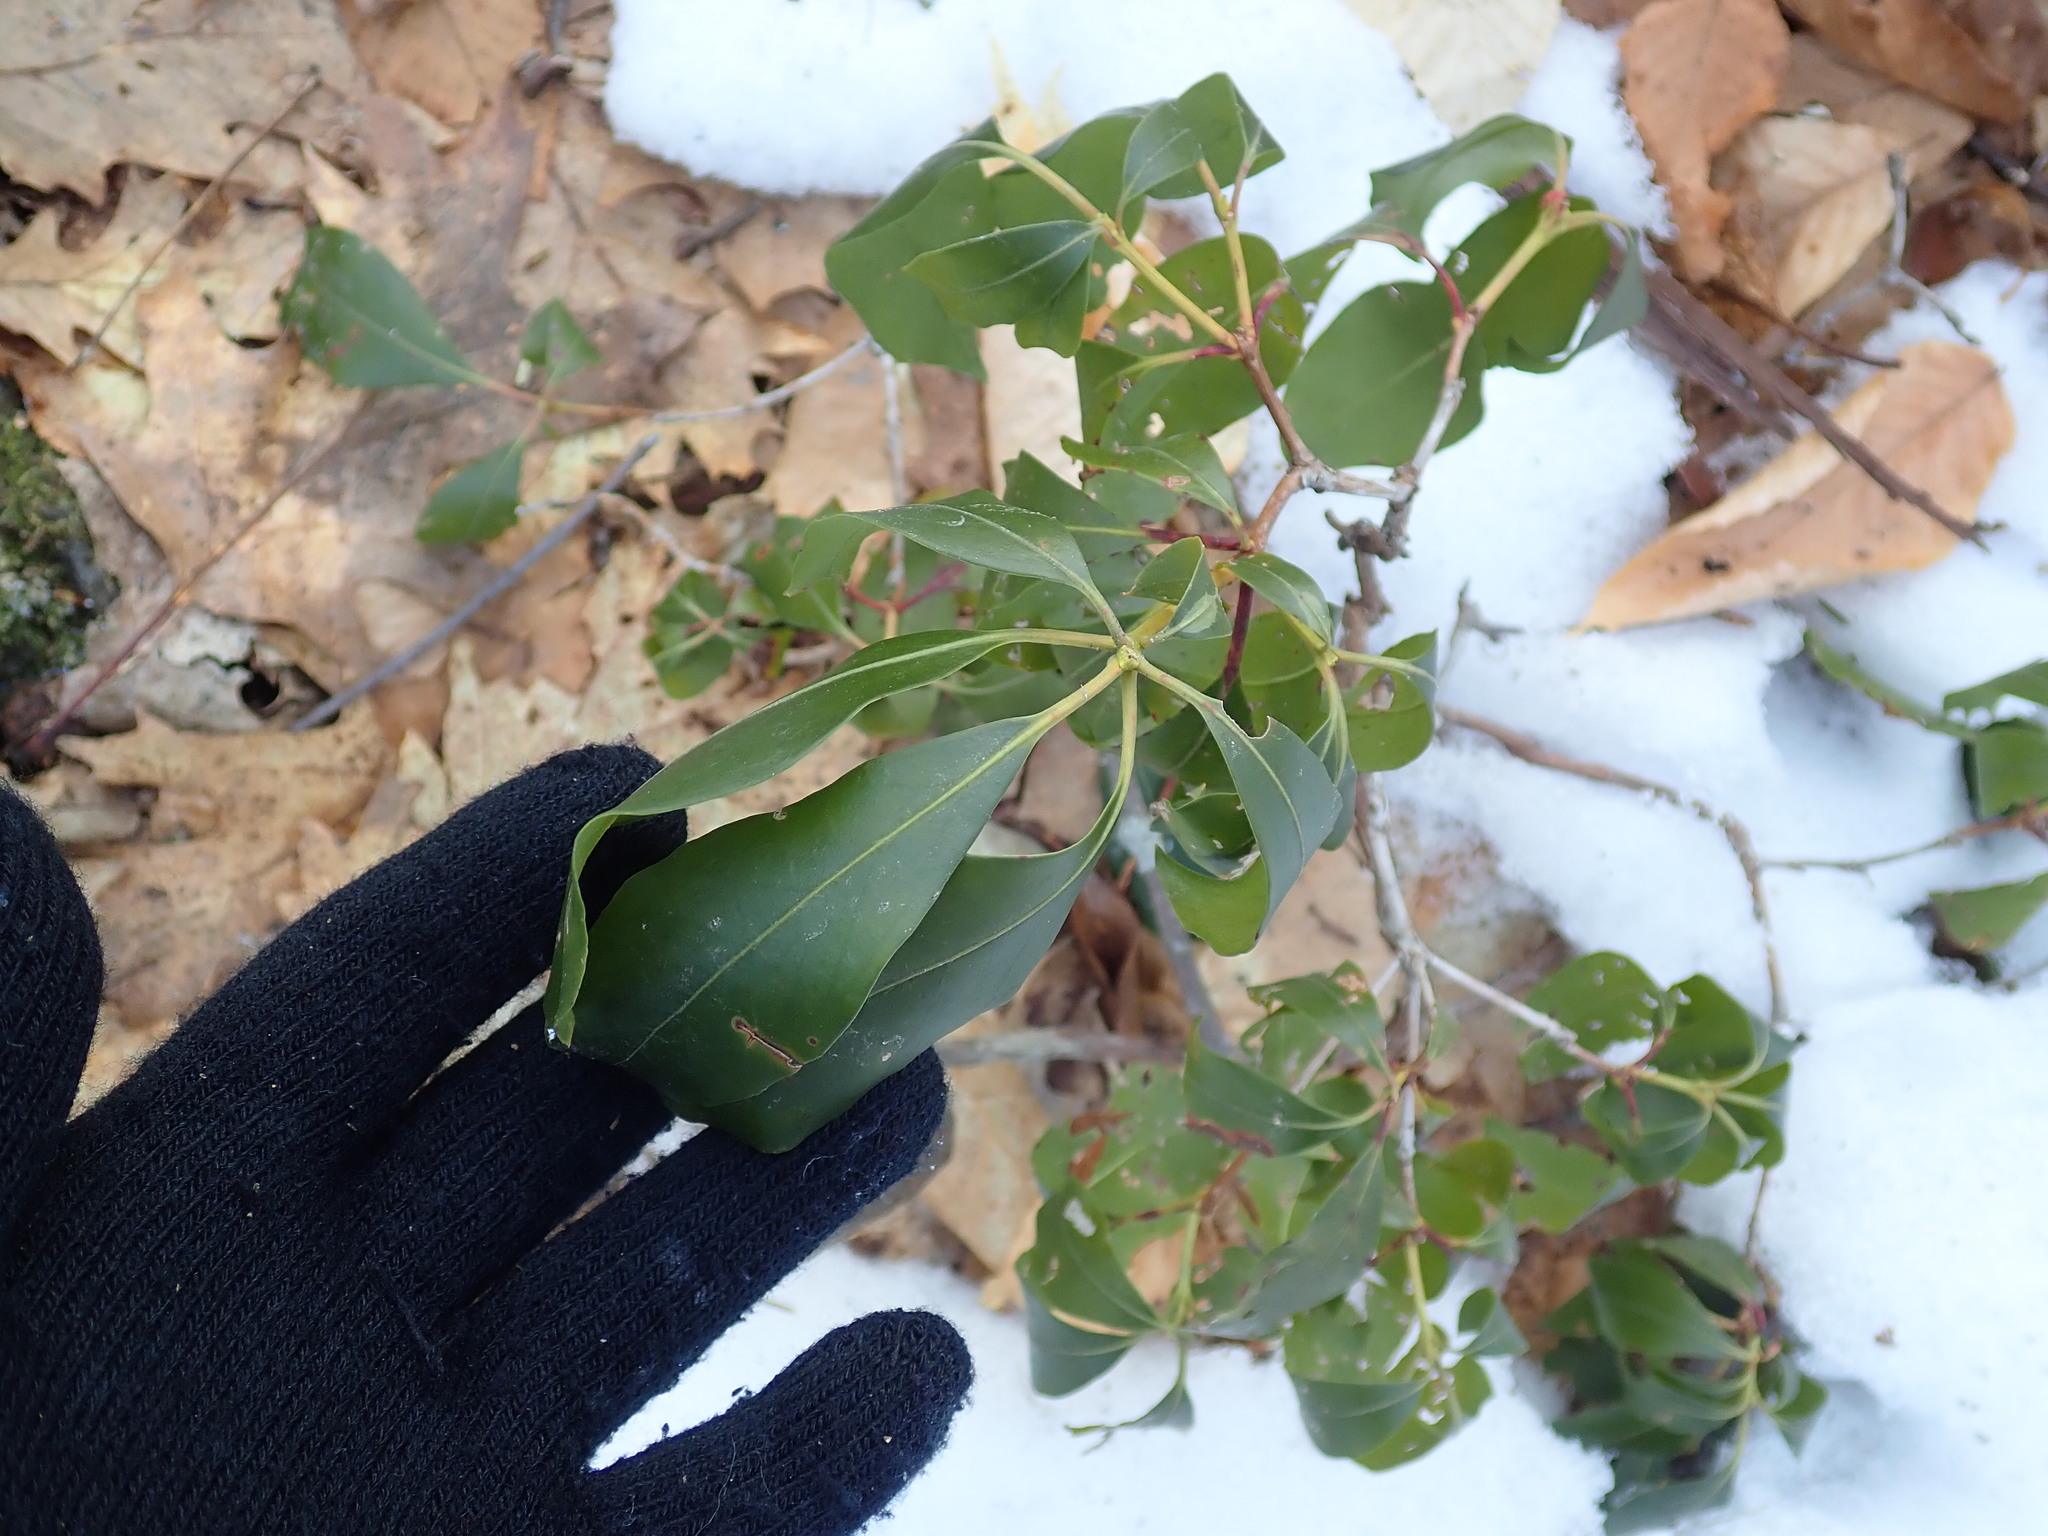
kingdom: Plantae
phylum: Tracheophyta
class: Magnoliopsida
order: Ericales
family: Ericaceae
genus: Kalmia
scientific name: Kalmia latifolia
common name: Mountain-laurel
